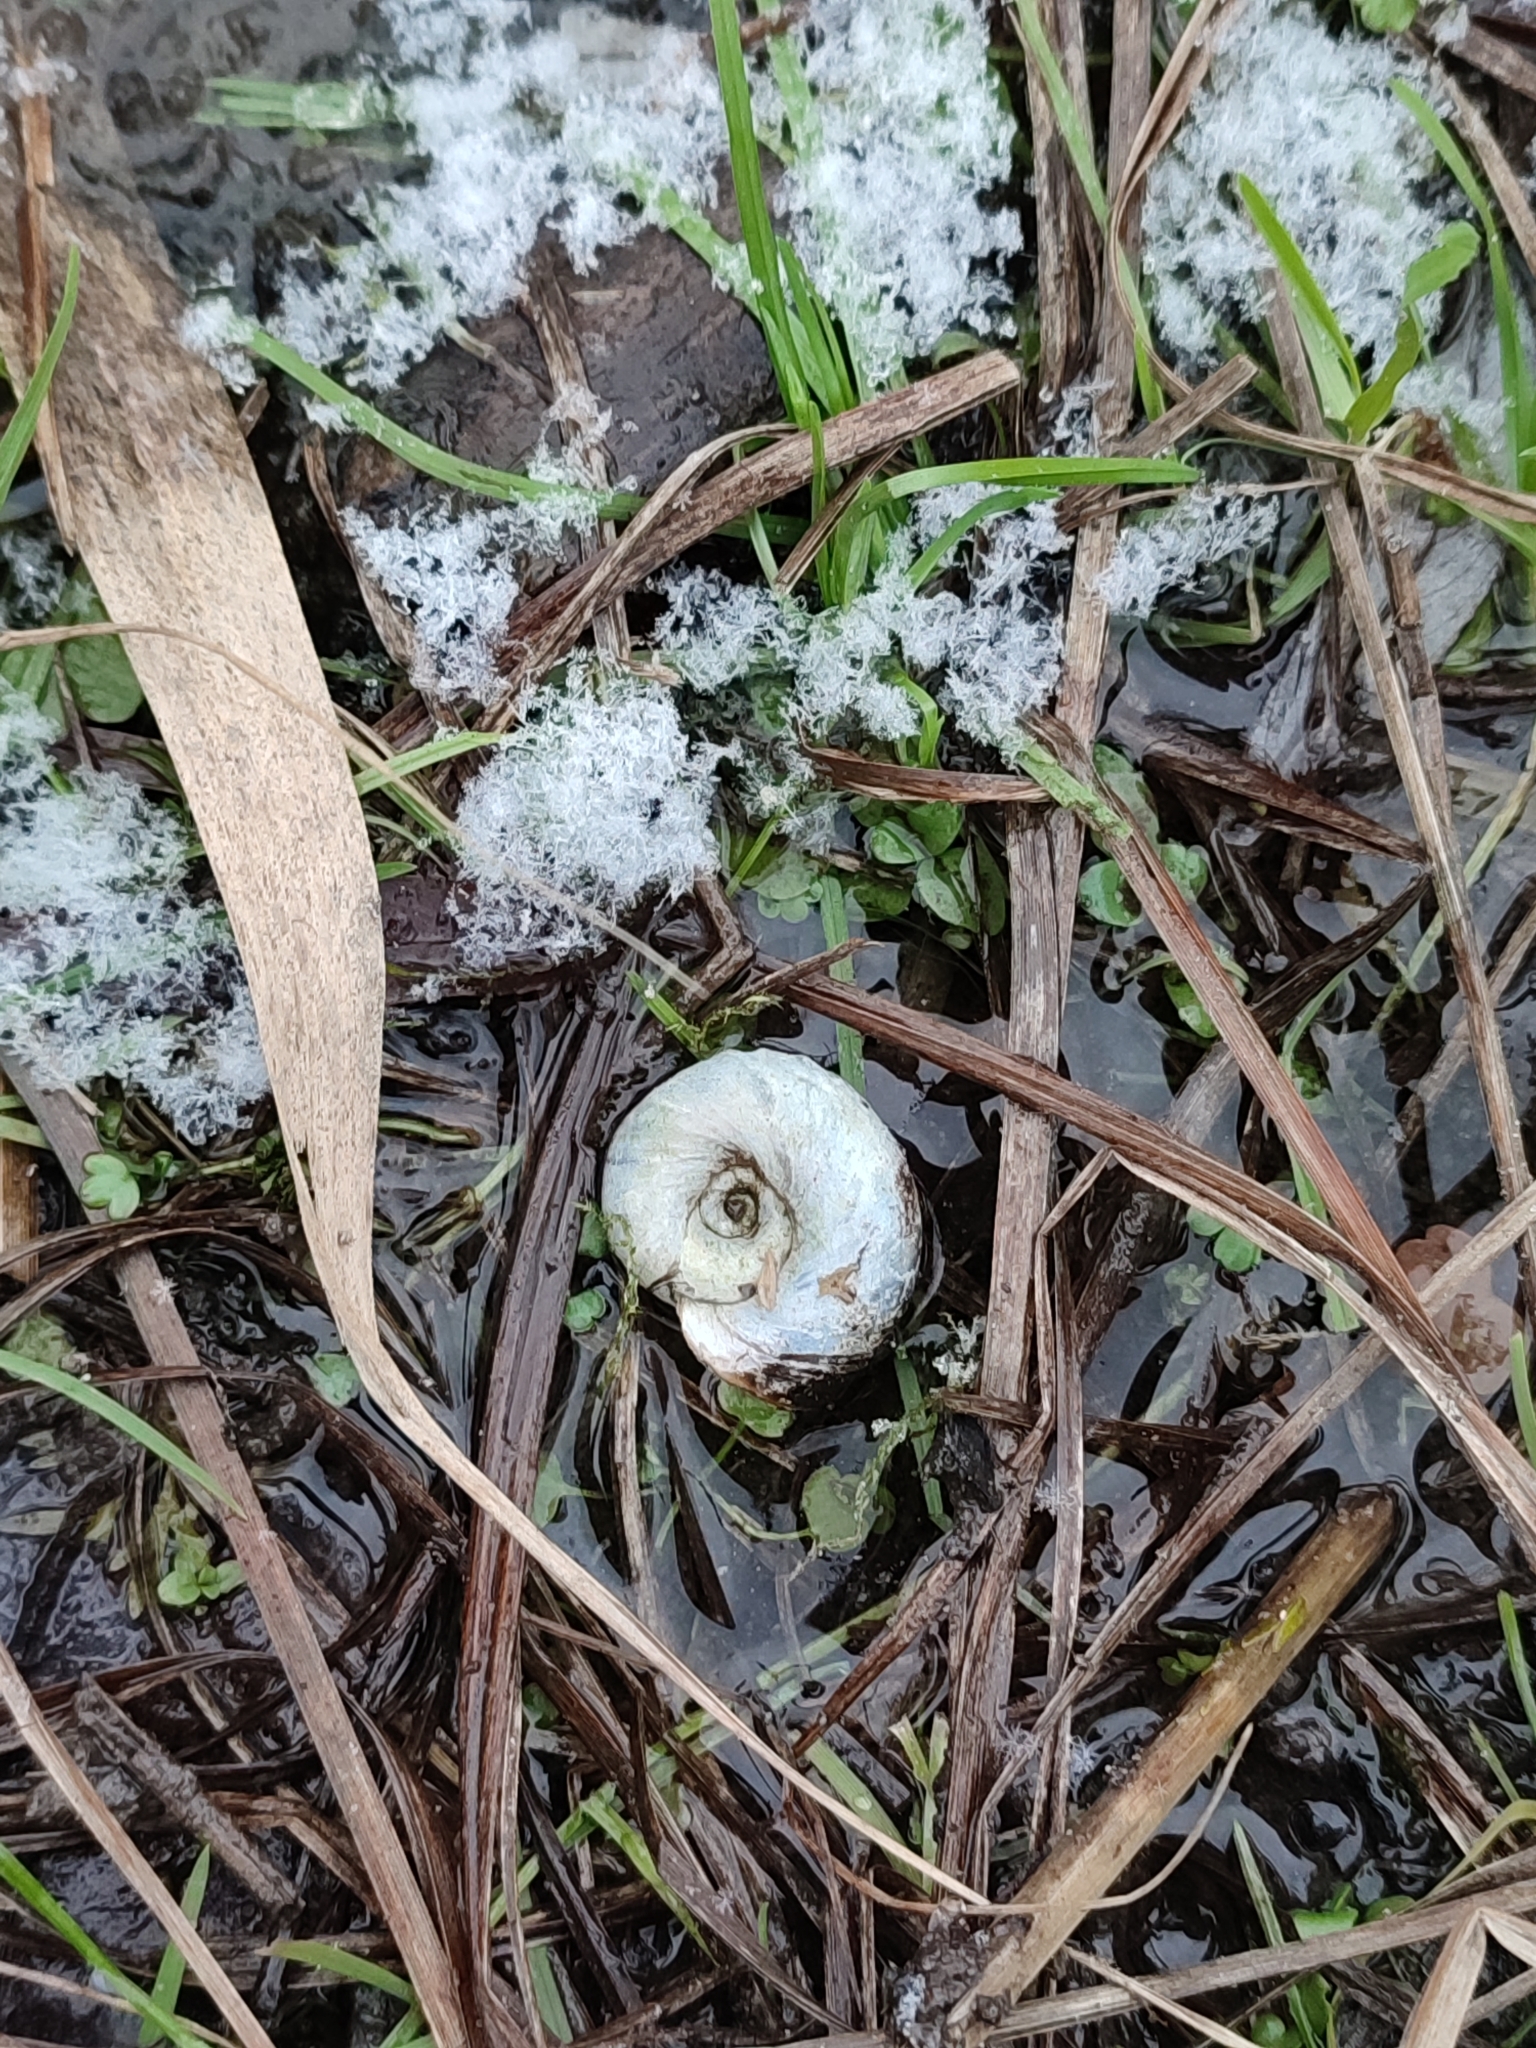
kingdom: Animalia
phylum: Mollusca
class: Gastropoda
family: Planorbidae
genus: Planorbarius
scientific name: Planorbarius corneus
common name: Great ramshorn
